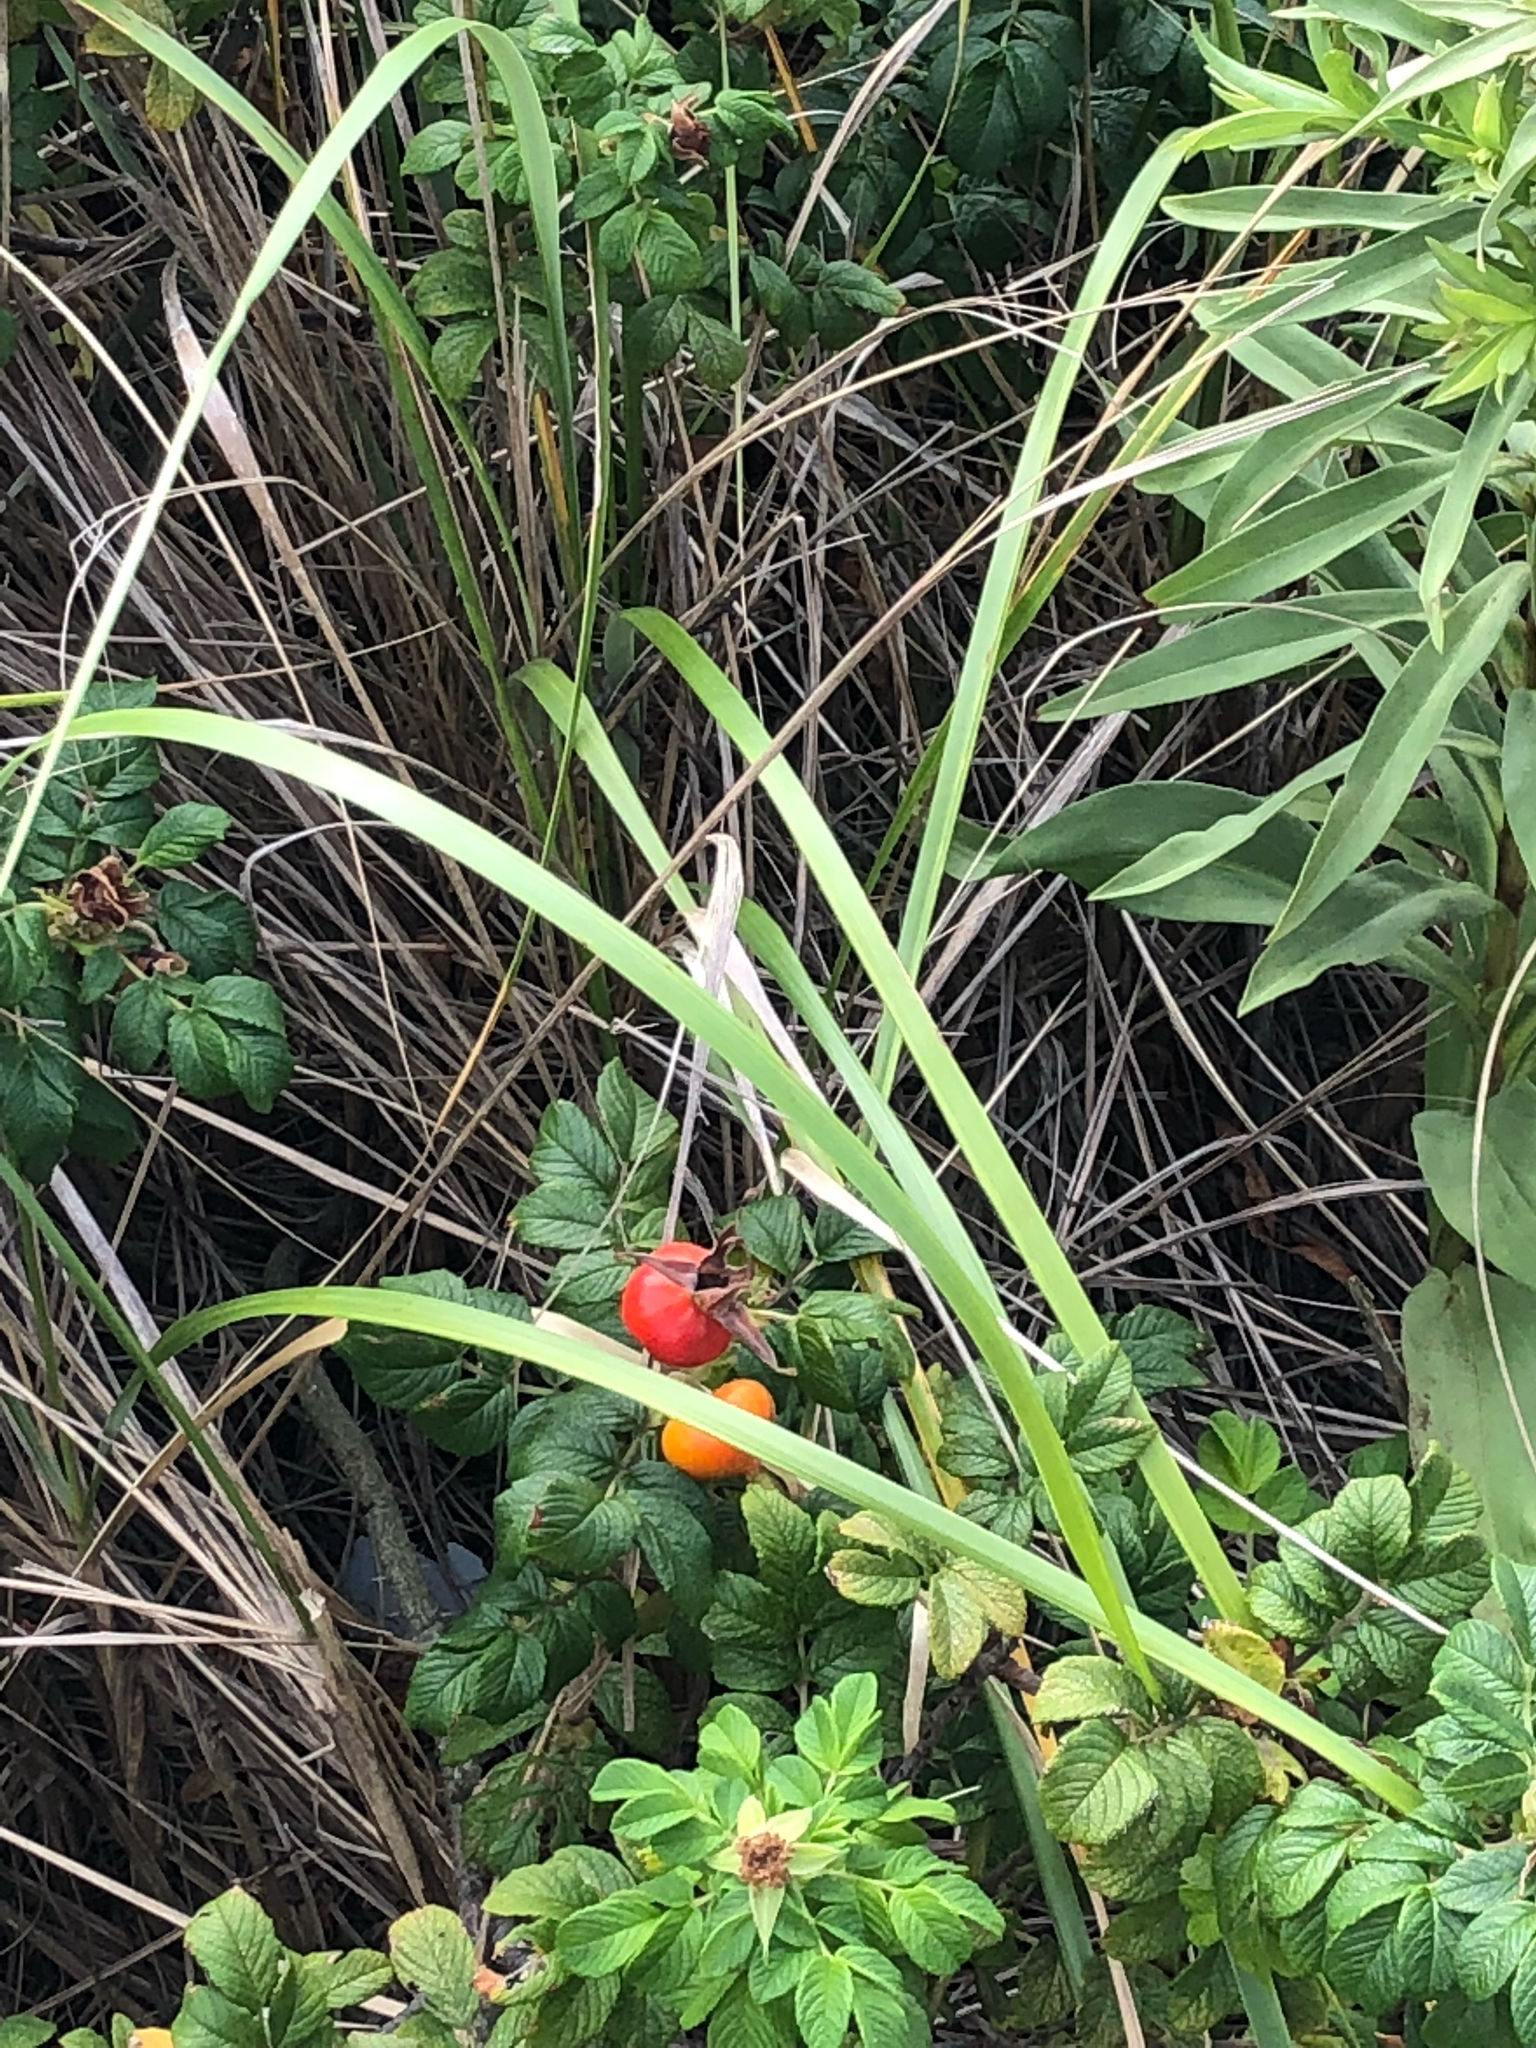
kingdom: Plantae
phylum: Tracheophyta
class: Magnoliopsida
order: Rosales
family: Rosaceae
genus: Rosa
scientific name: Rosa rugosa
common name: Japanese rose
